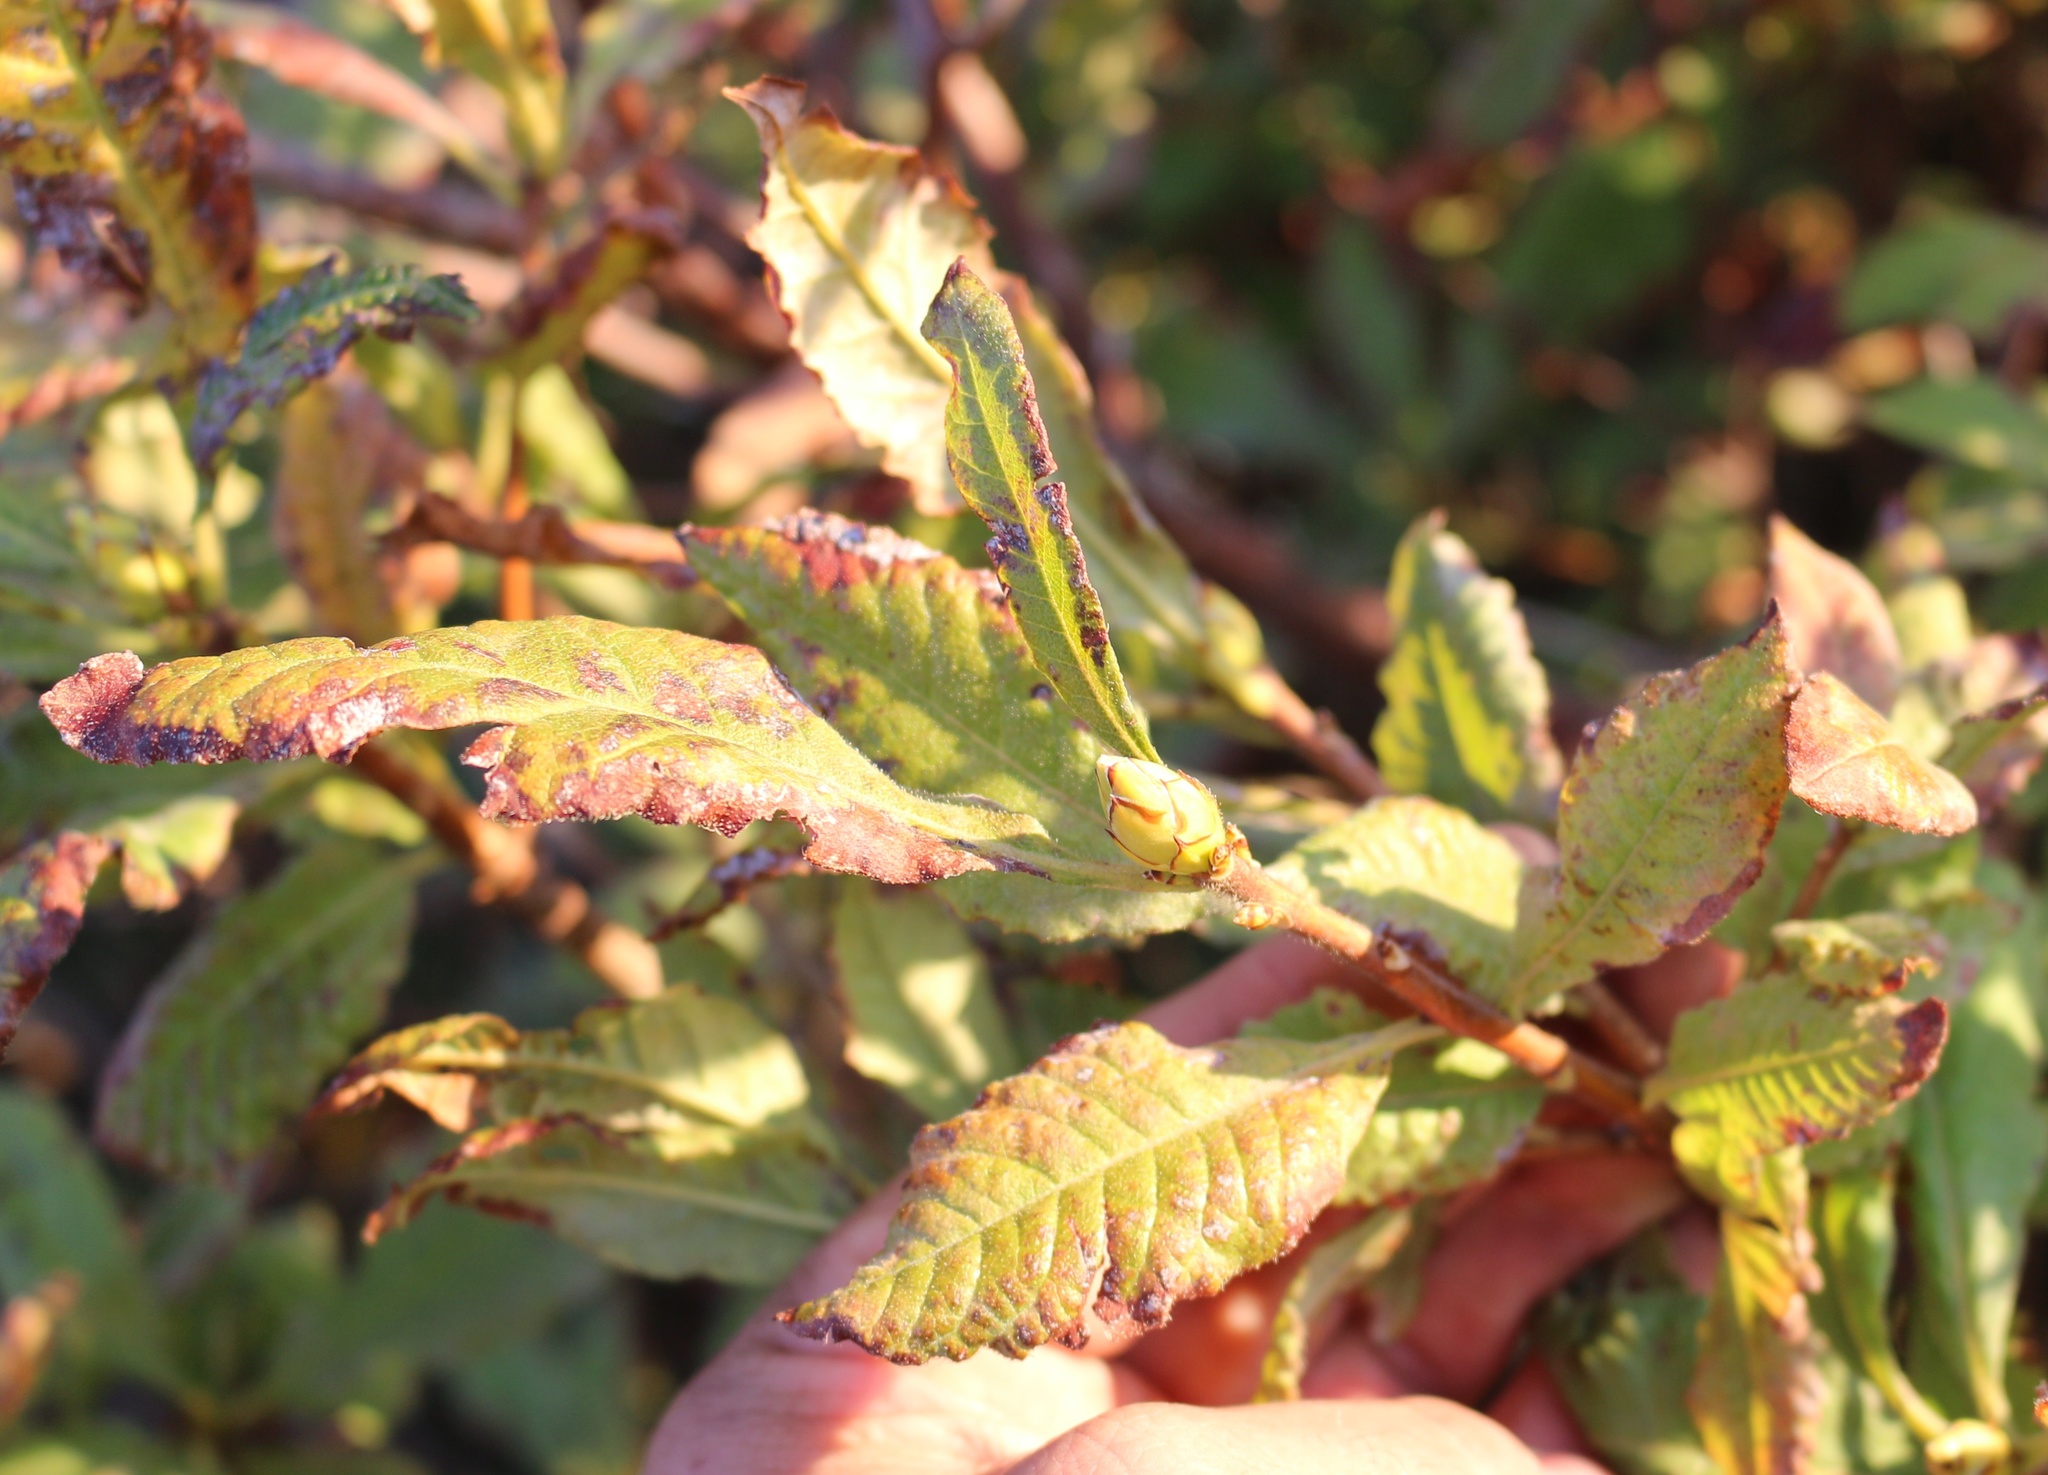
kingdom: Plantae
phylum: Tracheophyta
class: Magnoliopsida
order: Ericales
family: Ericaceae
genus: Rhododendron
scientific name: Rhododendron luteum
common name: Yellow azalea
